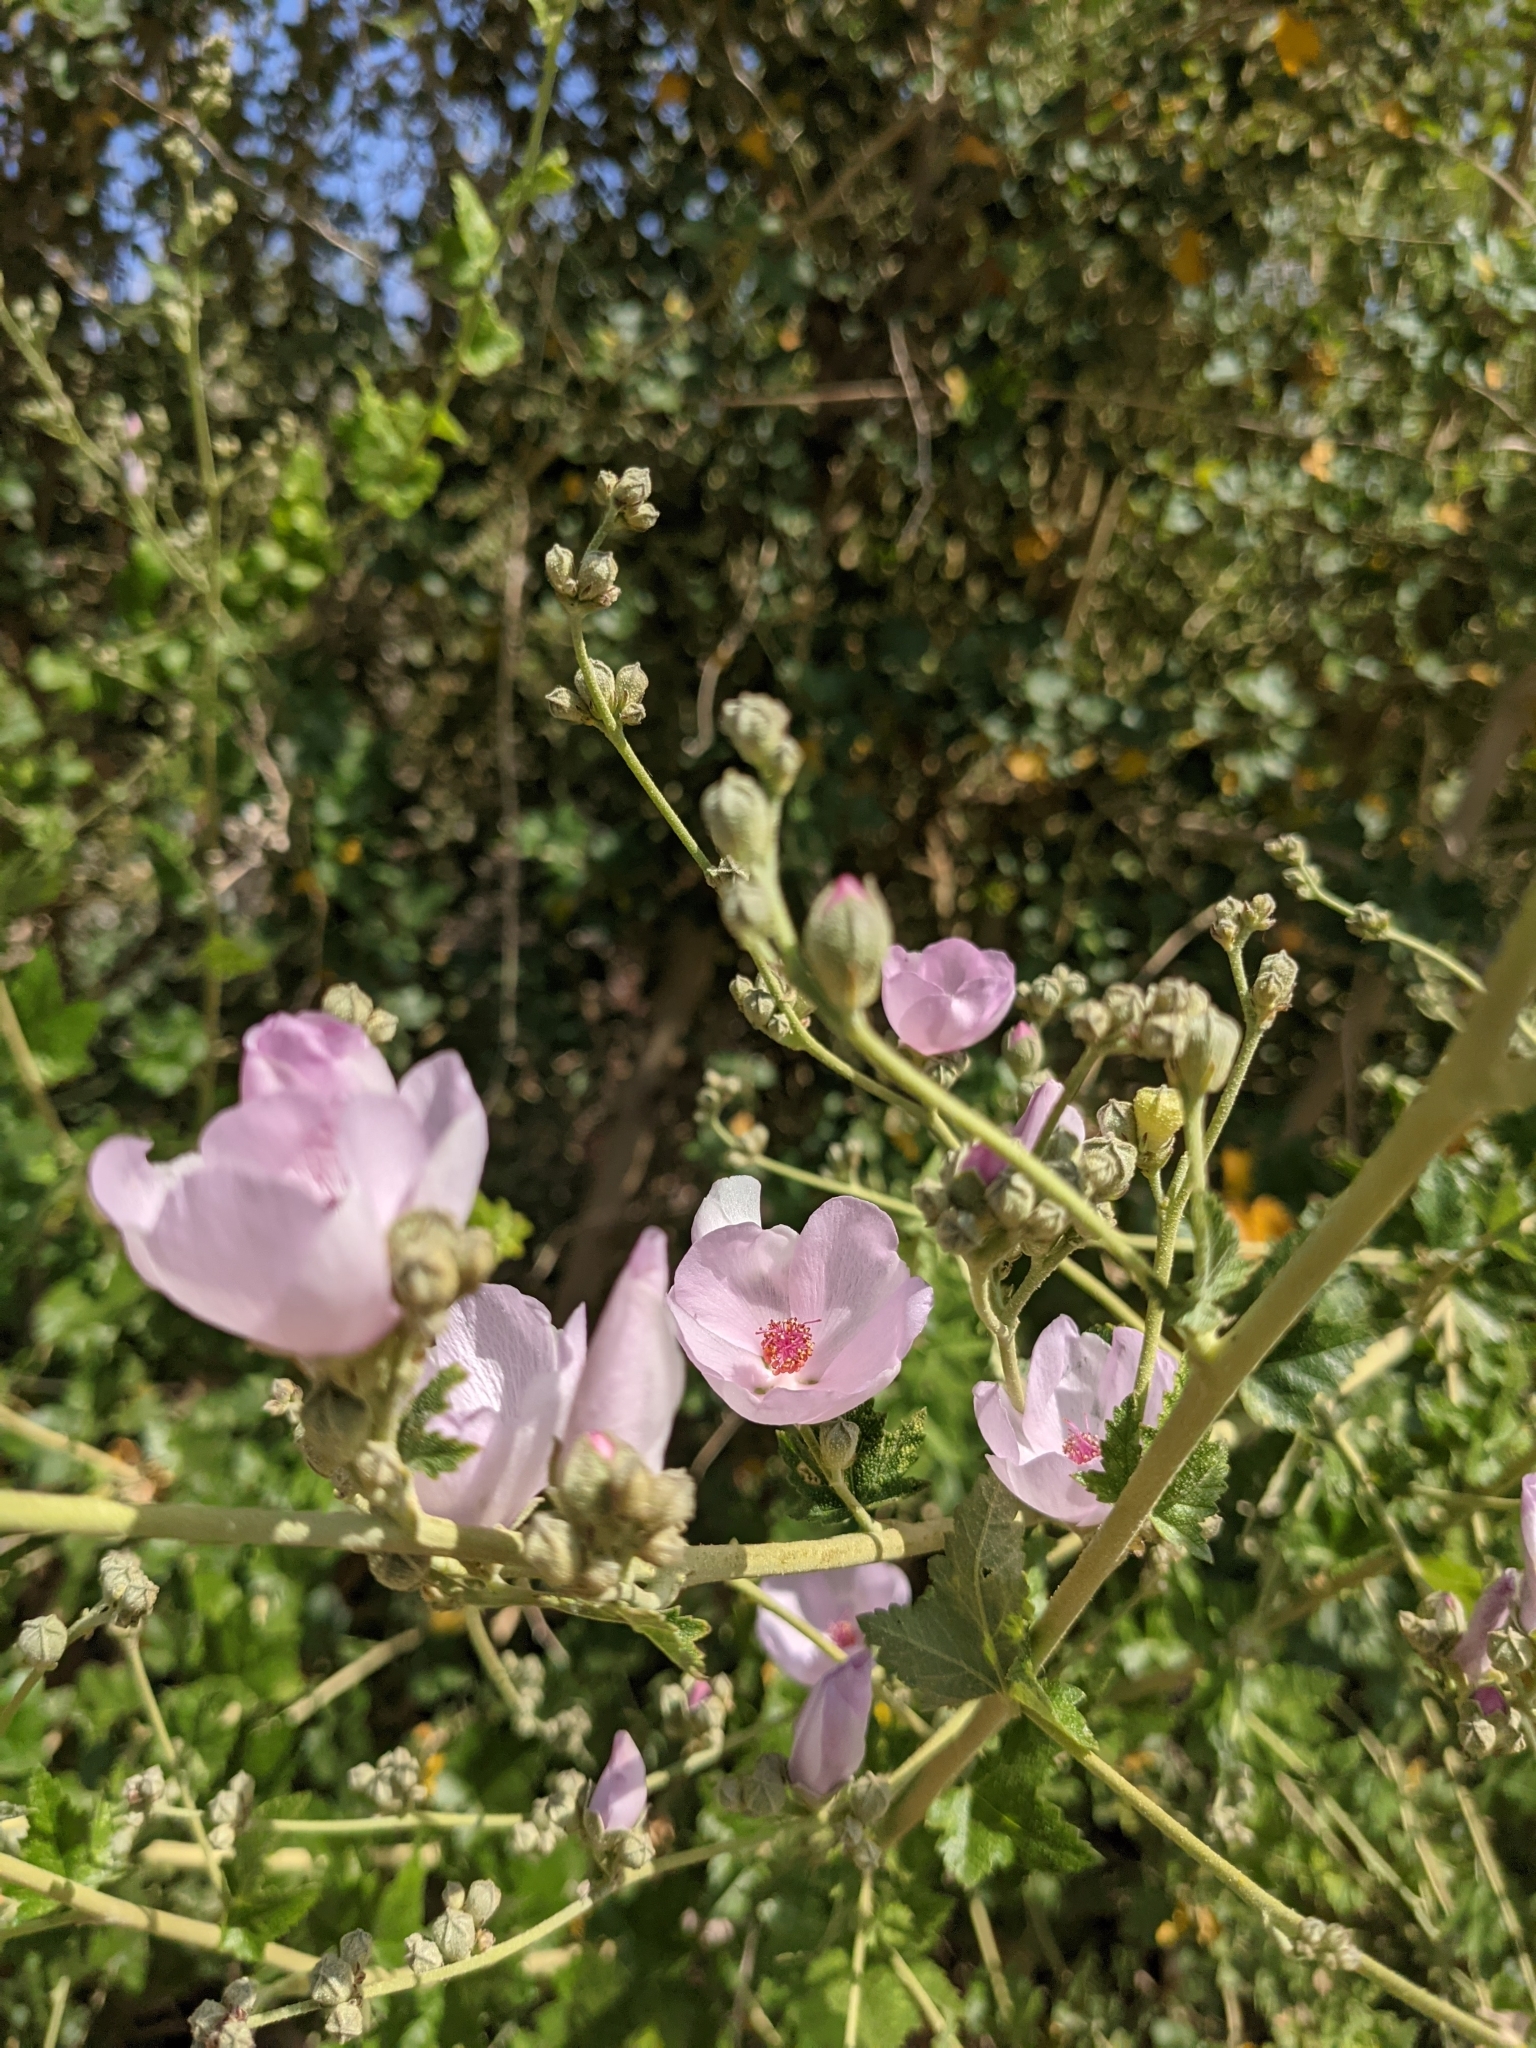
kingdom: Plantae
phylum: Tracheophyta
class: Magnoliopsida
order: Malvales
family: Malvaceae
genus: Malacothamnus
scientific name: Malacothamnus fasciculatus
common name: Sant cruz island bush-mallow
